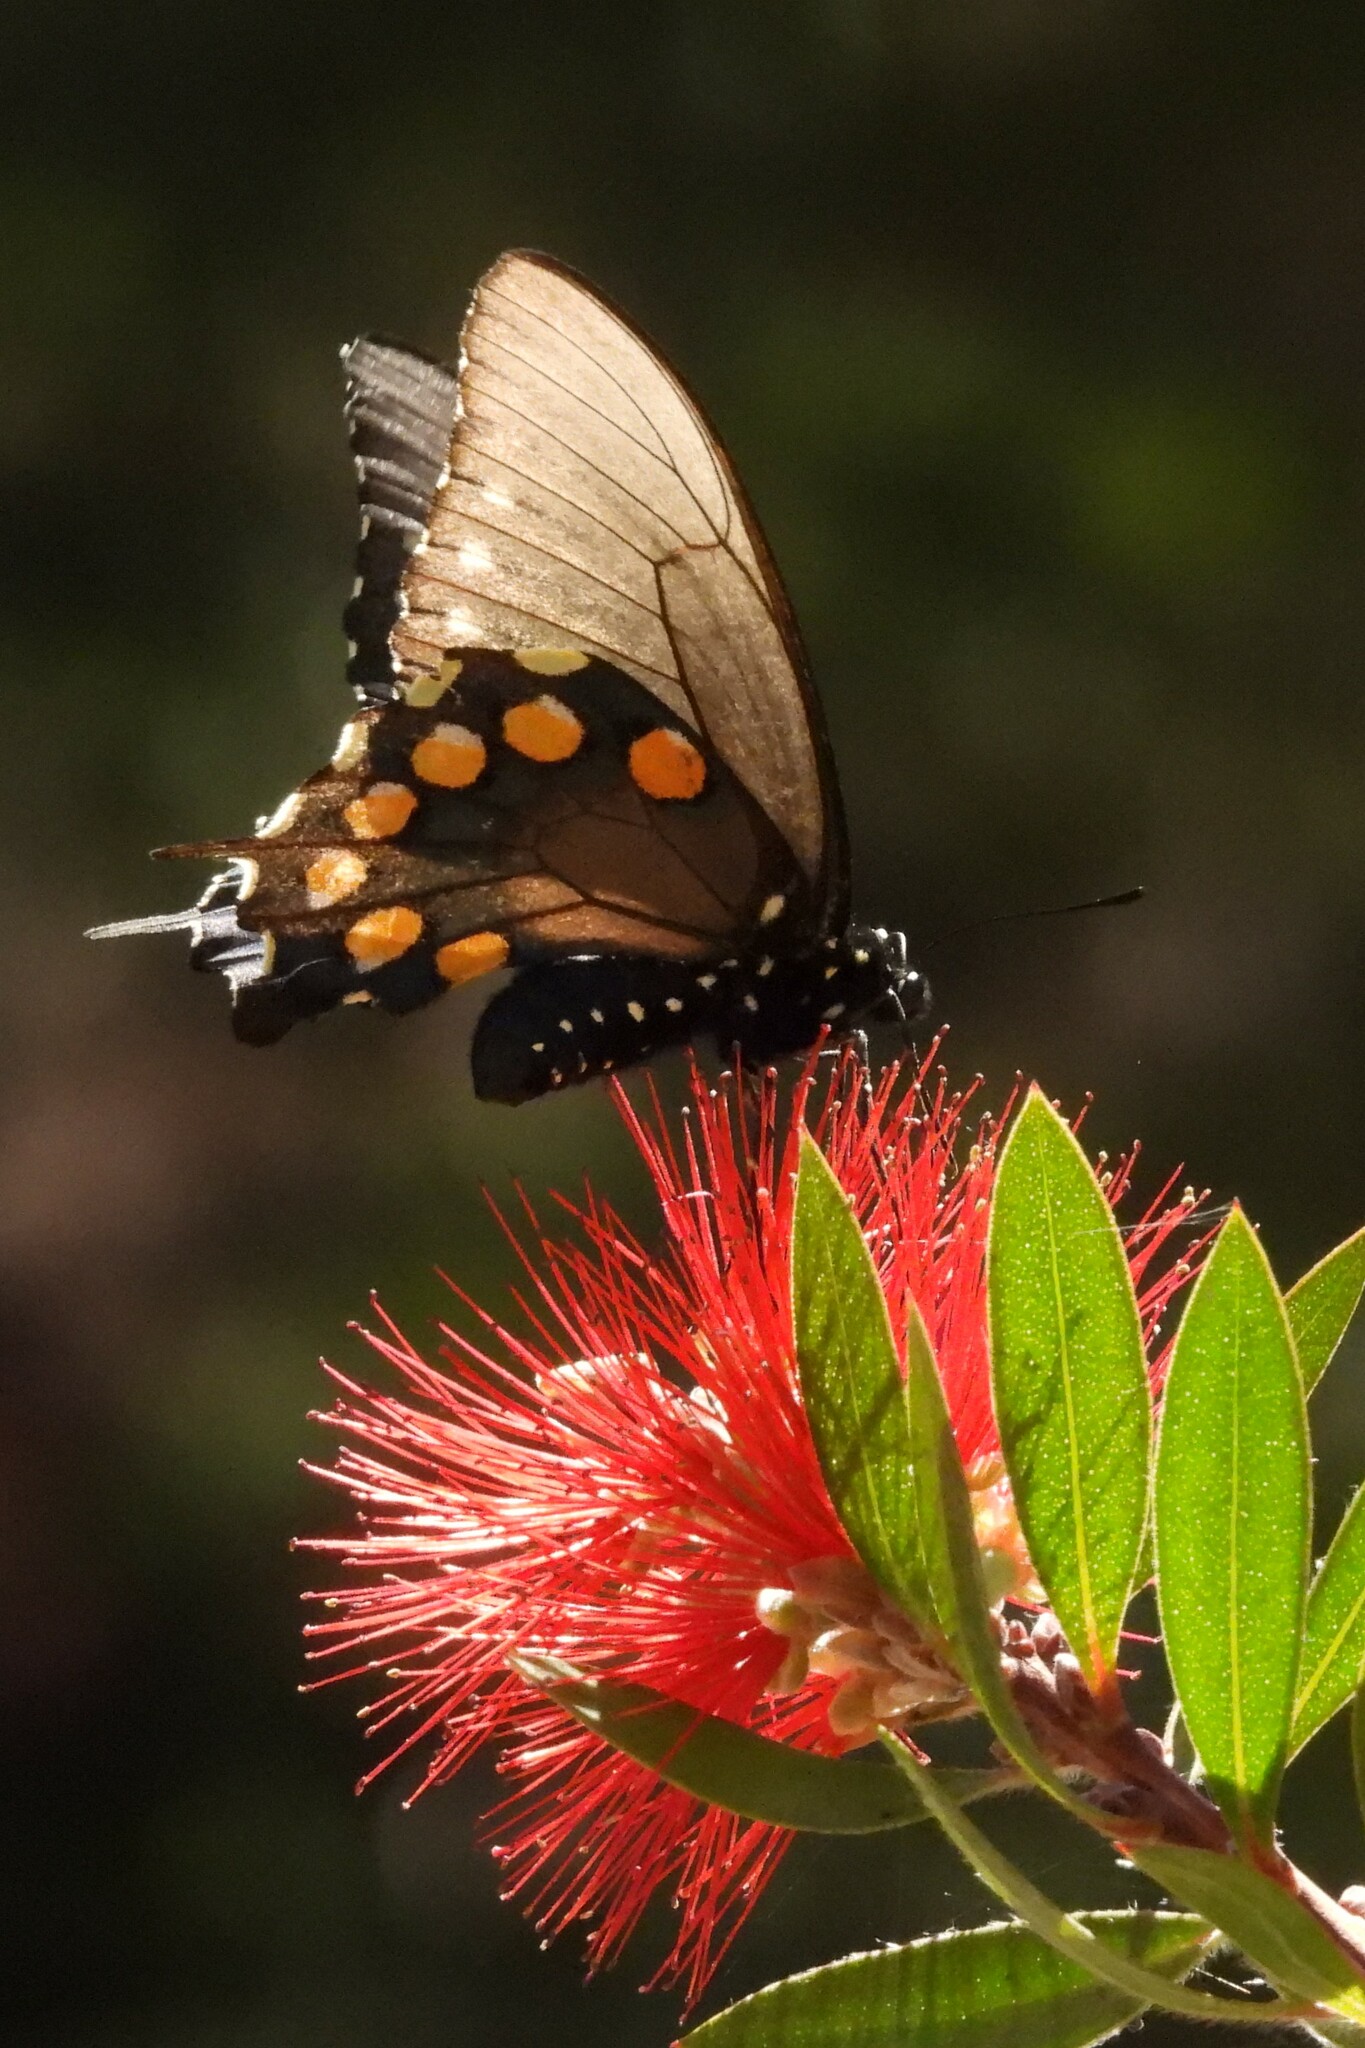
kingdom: Animalia
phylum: Arthropoda
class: Insecta
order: Lepidoptera
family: Papilionidae
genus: Battus
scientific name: Battus philenor
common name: Pipevine swallowtail
